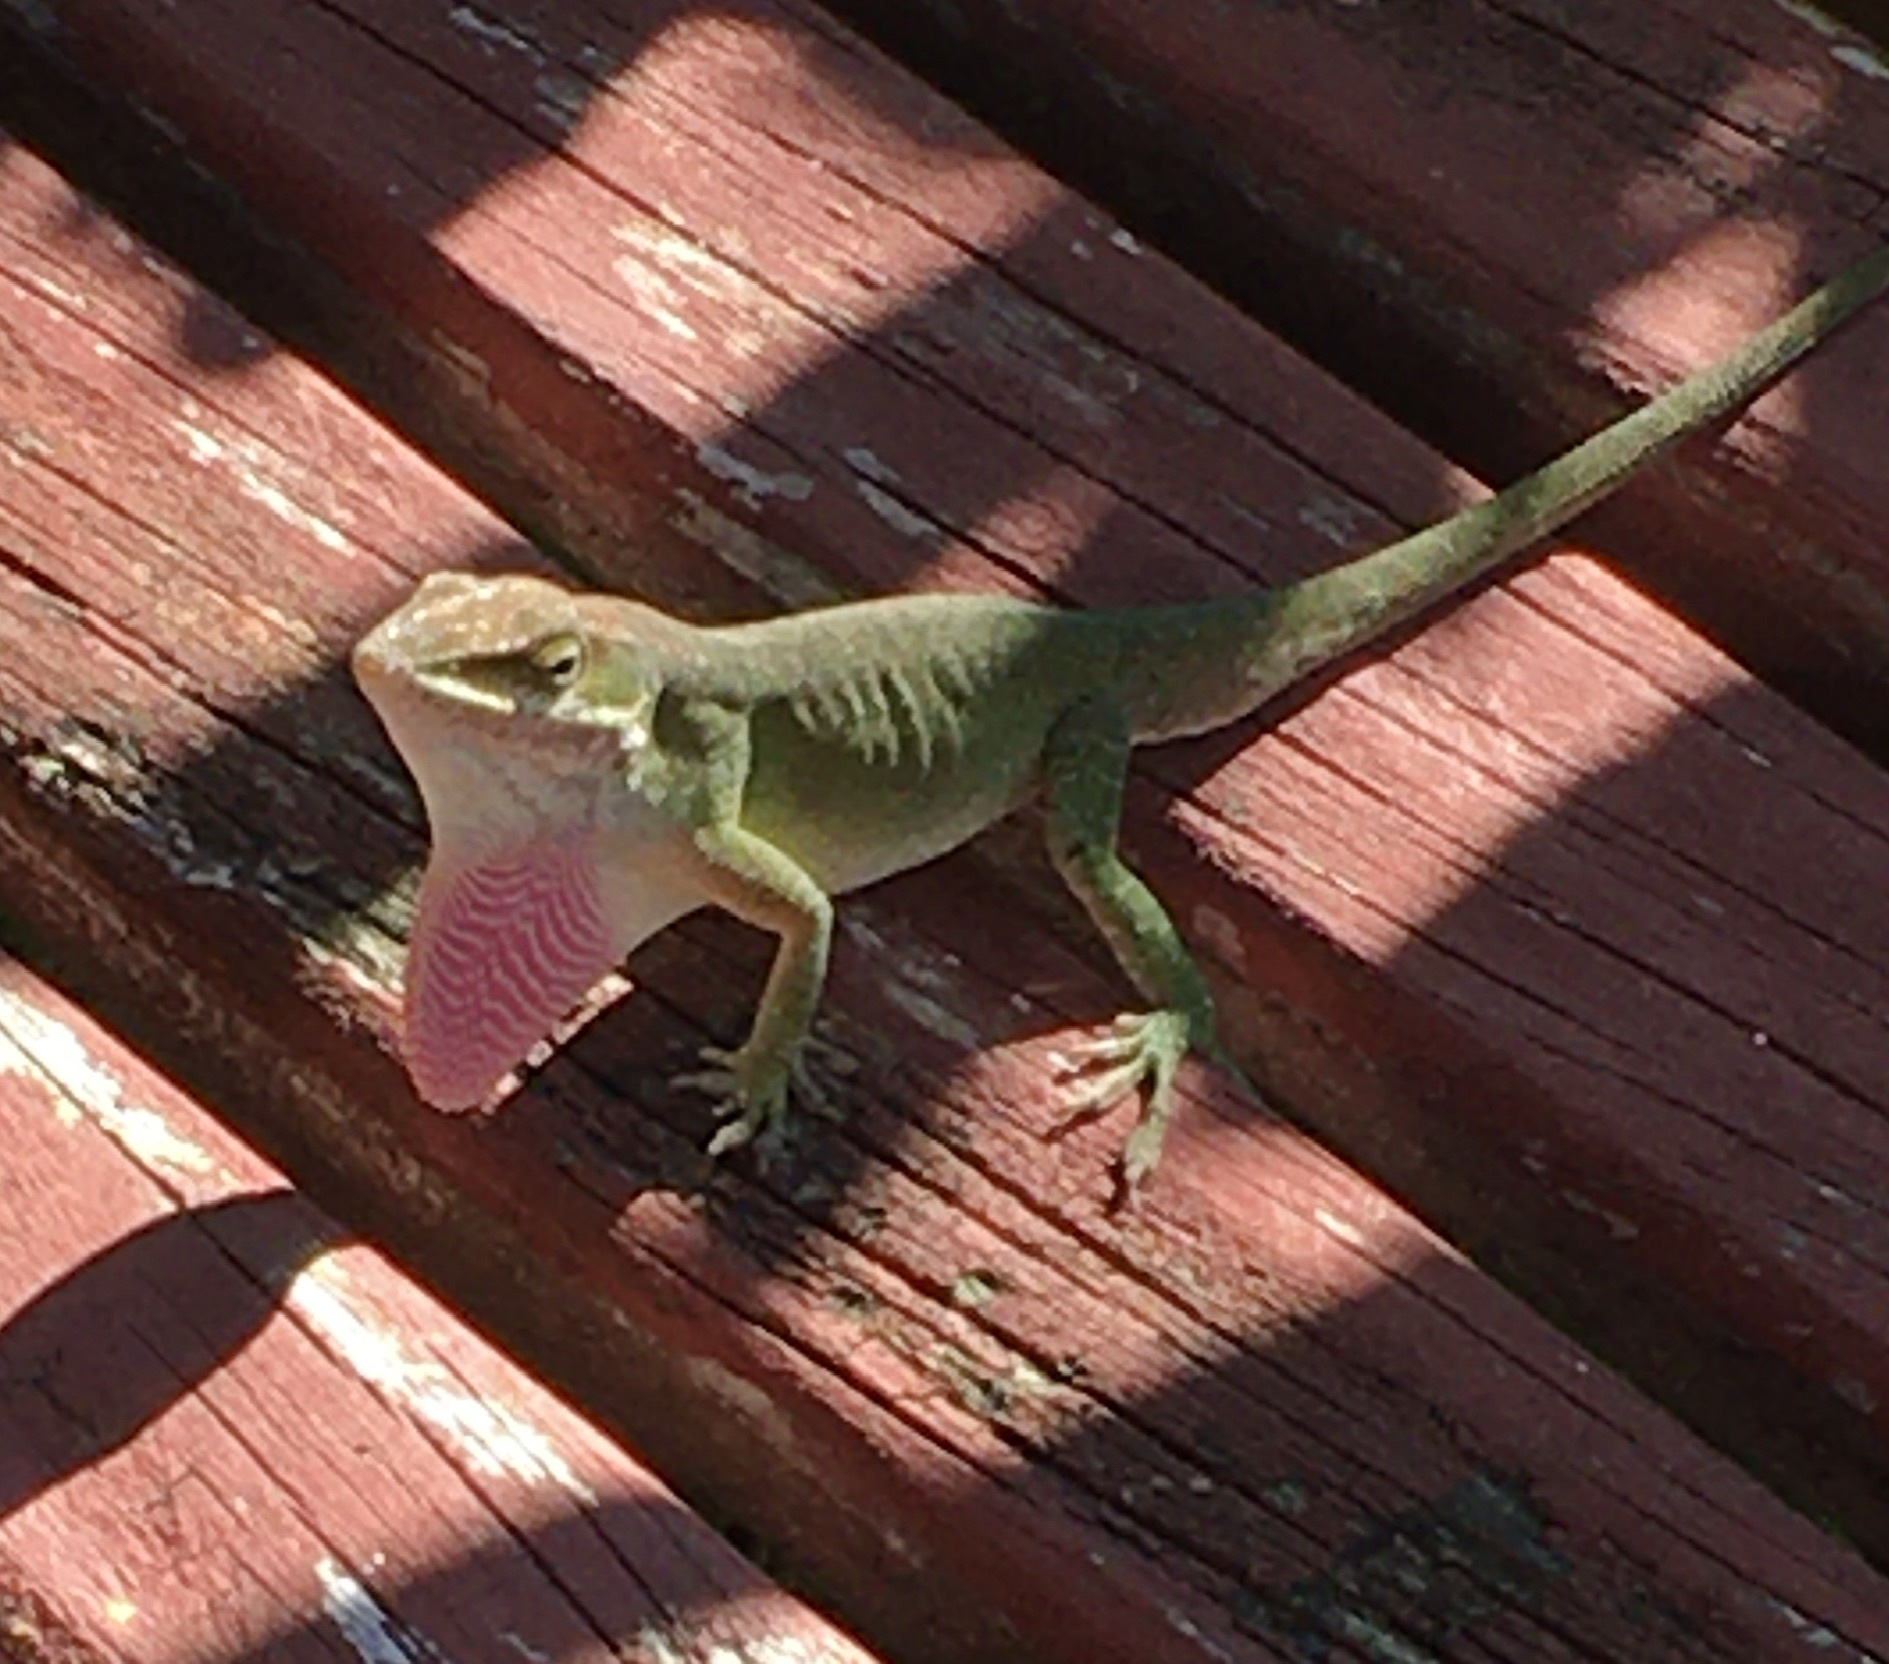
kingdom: Animalia
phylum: Chordata
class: Squamata
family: Dactyloidae
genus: Anolis
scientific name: Anolis carolinensis
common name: Green anole
